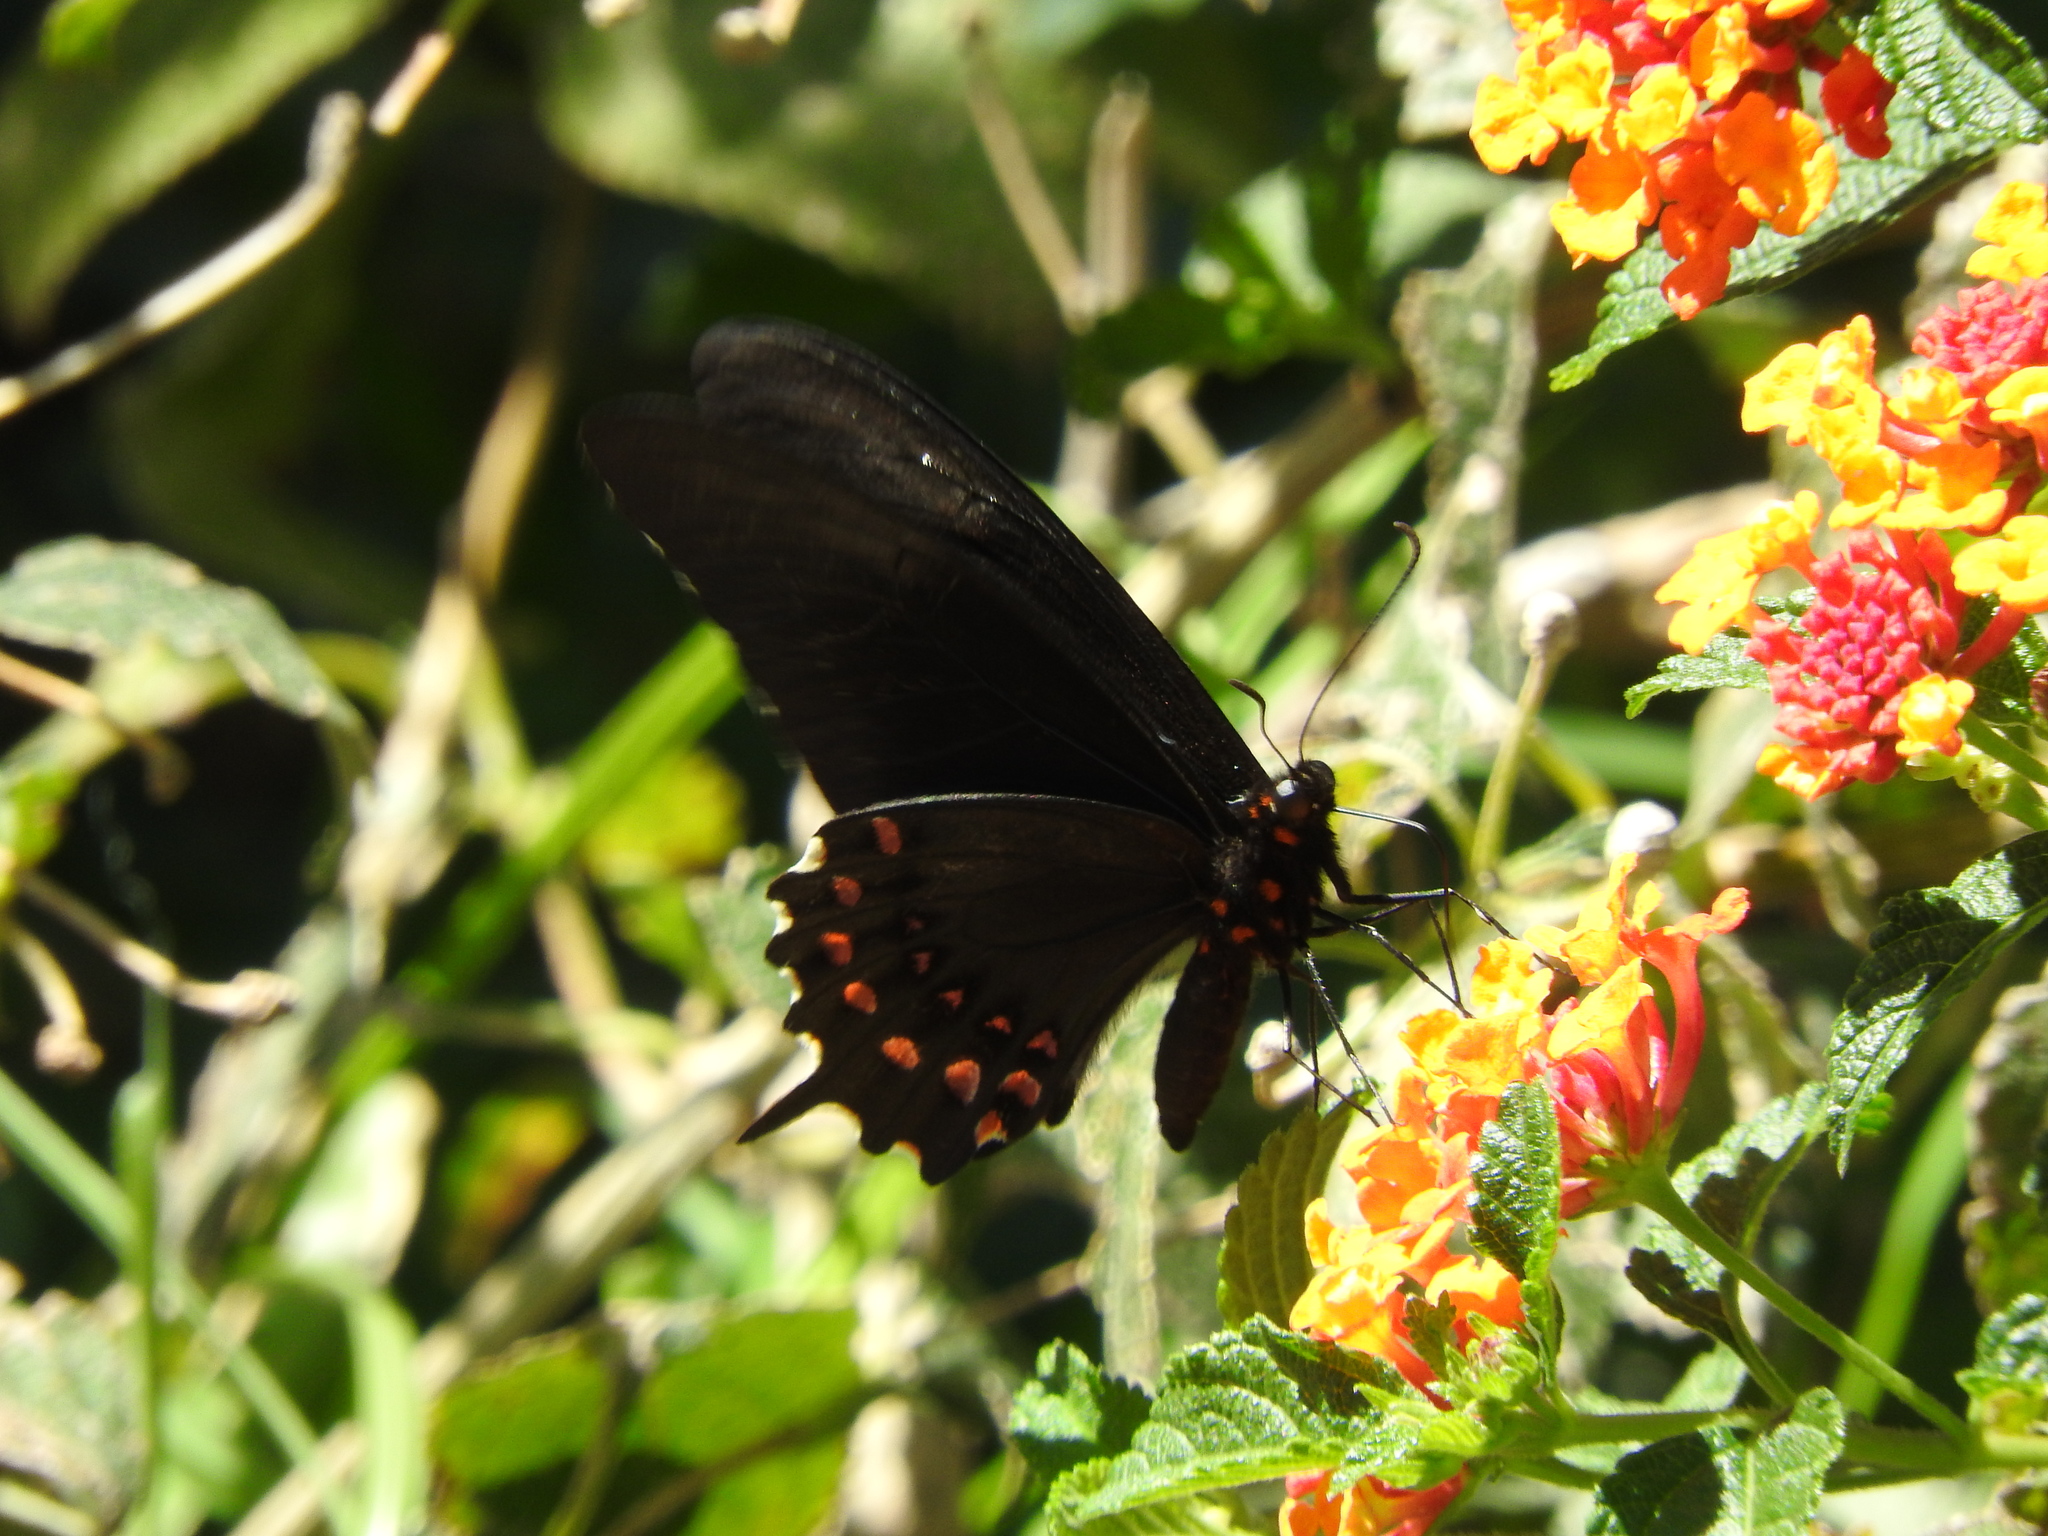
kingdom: Animalia
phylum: Arthropoda
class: Insecta
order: Lepidoptera
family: Papilionidae
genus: Heraclides
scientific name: Heraclides rogeri
